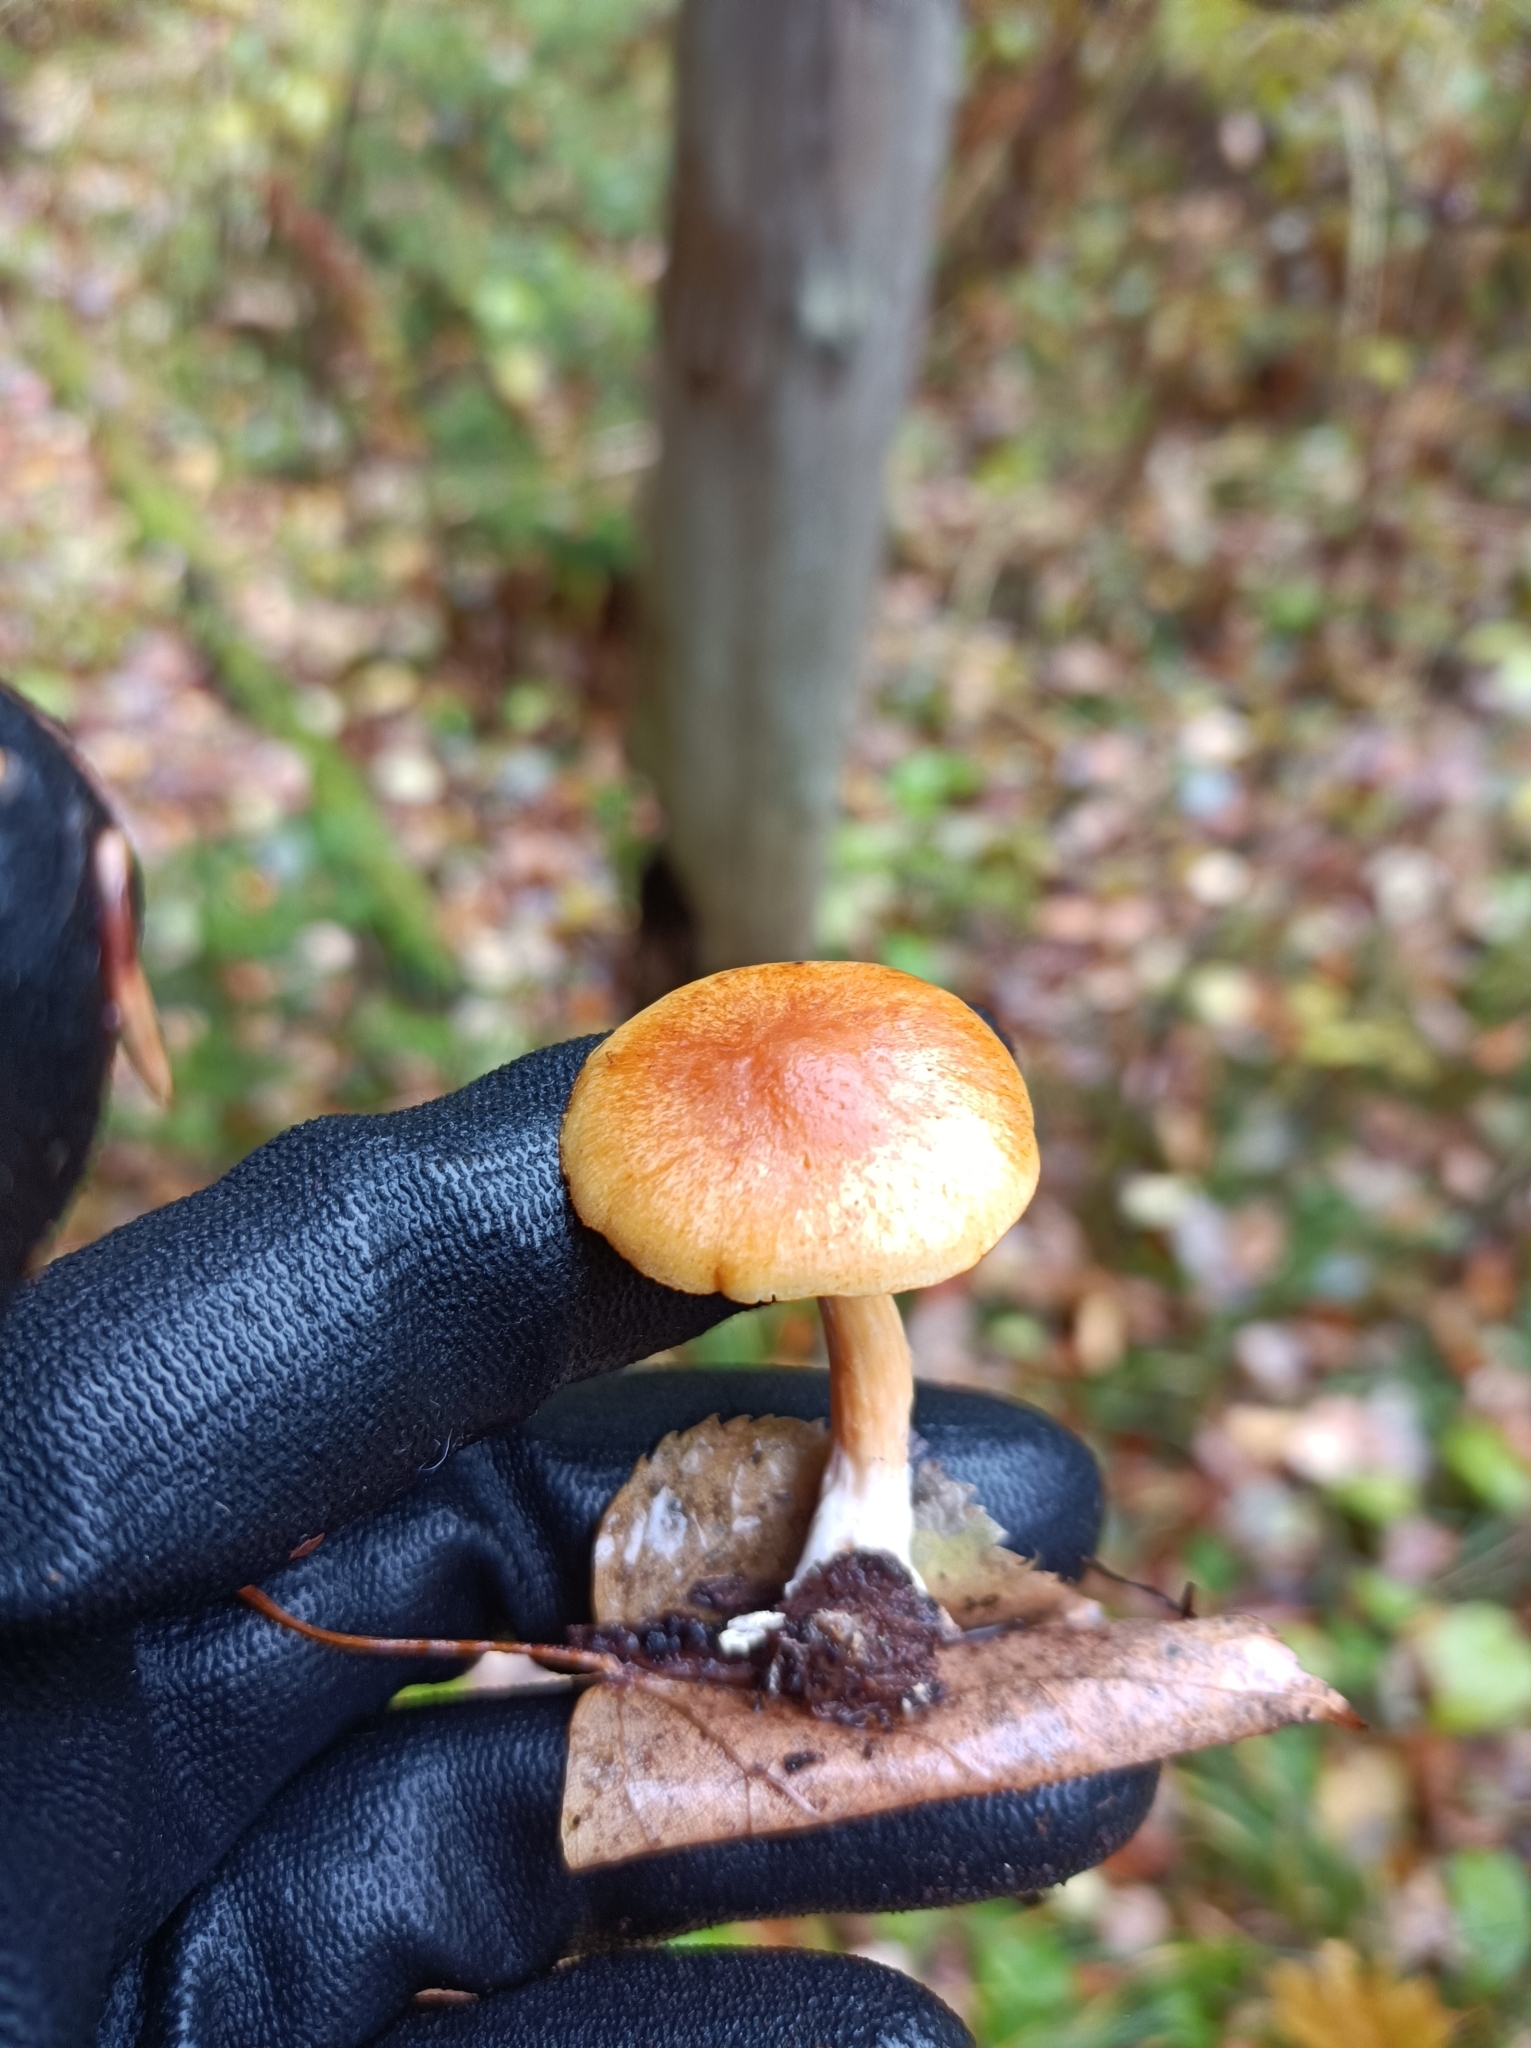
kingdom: Fungi
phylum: Basidiomycota
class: Agaricomycetes
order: Agaricales
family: Hymenogastraceae
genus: Gymnopilus
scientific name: Gymnopilus sapineus
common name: Scaly rustgill
